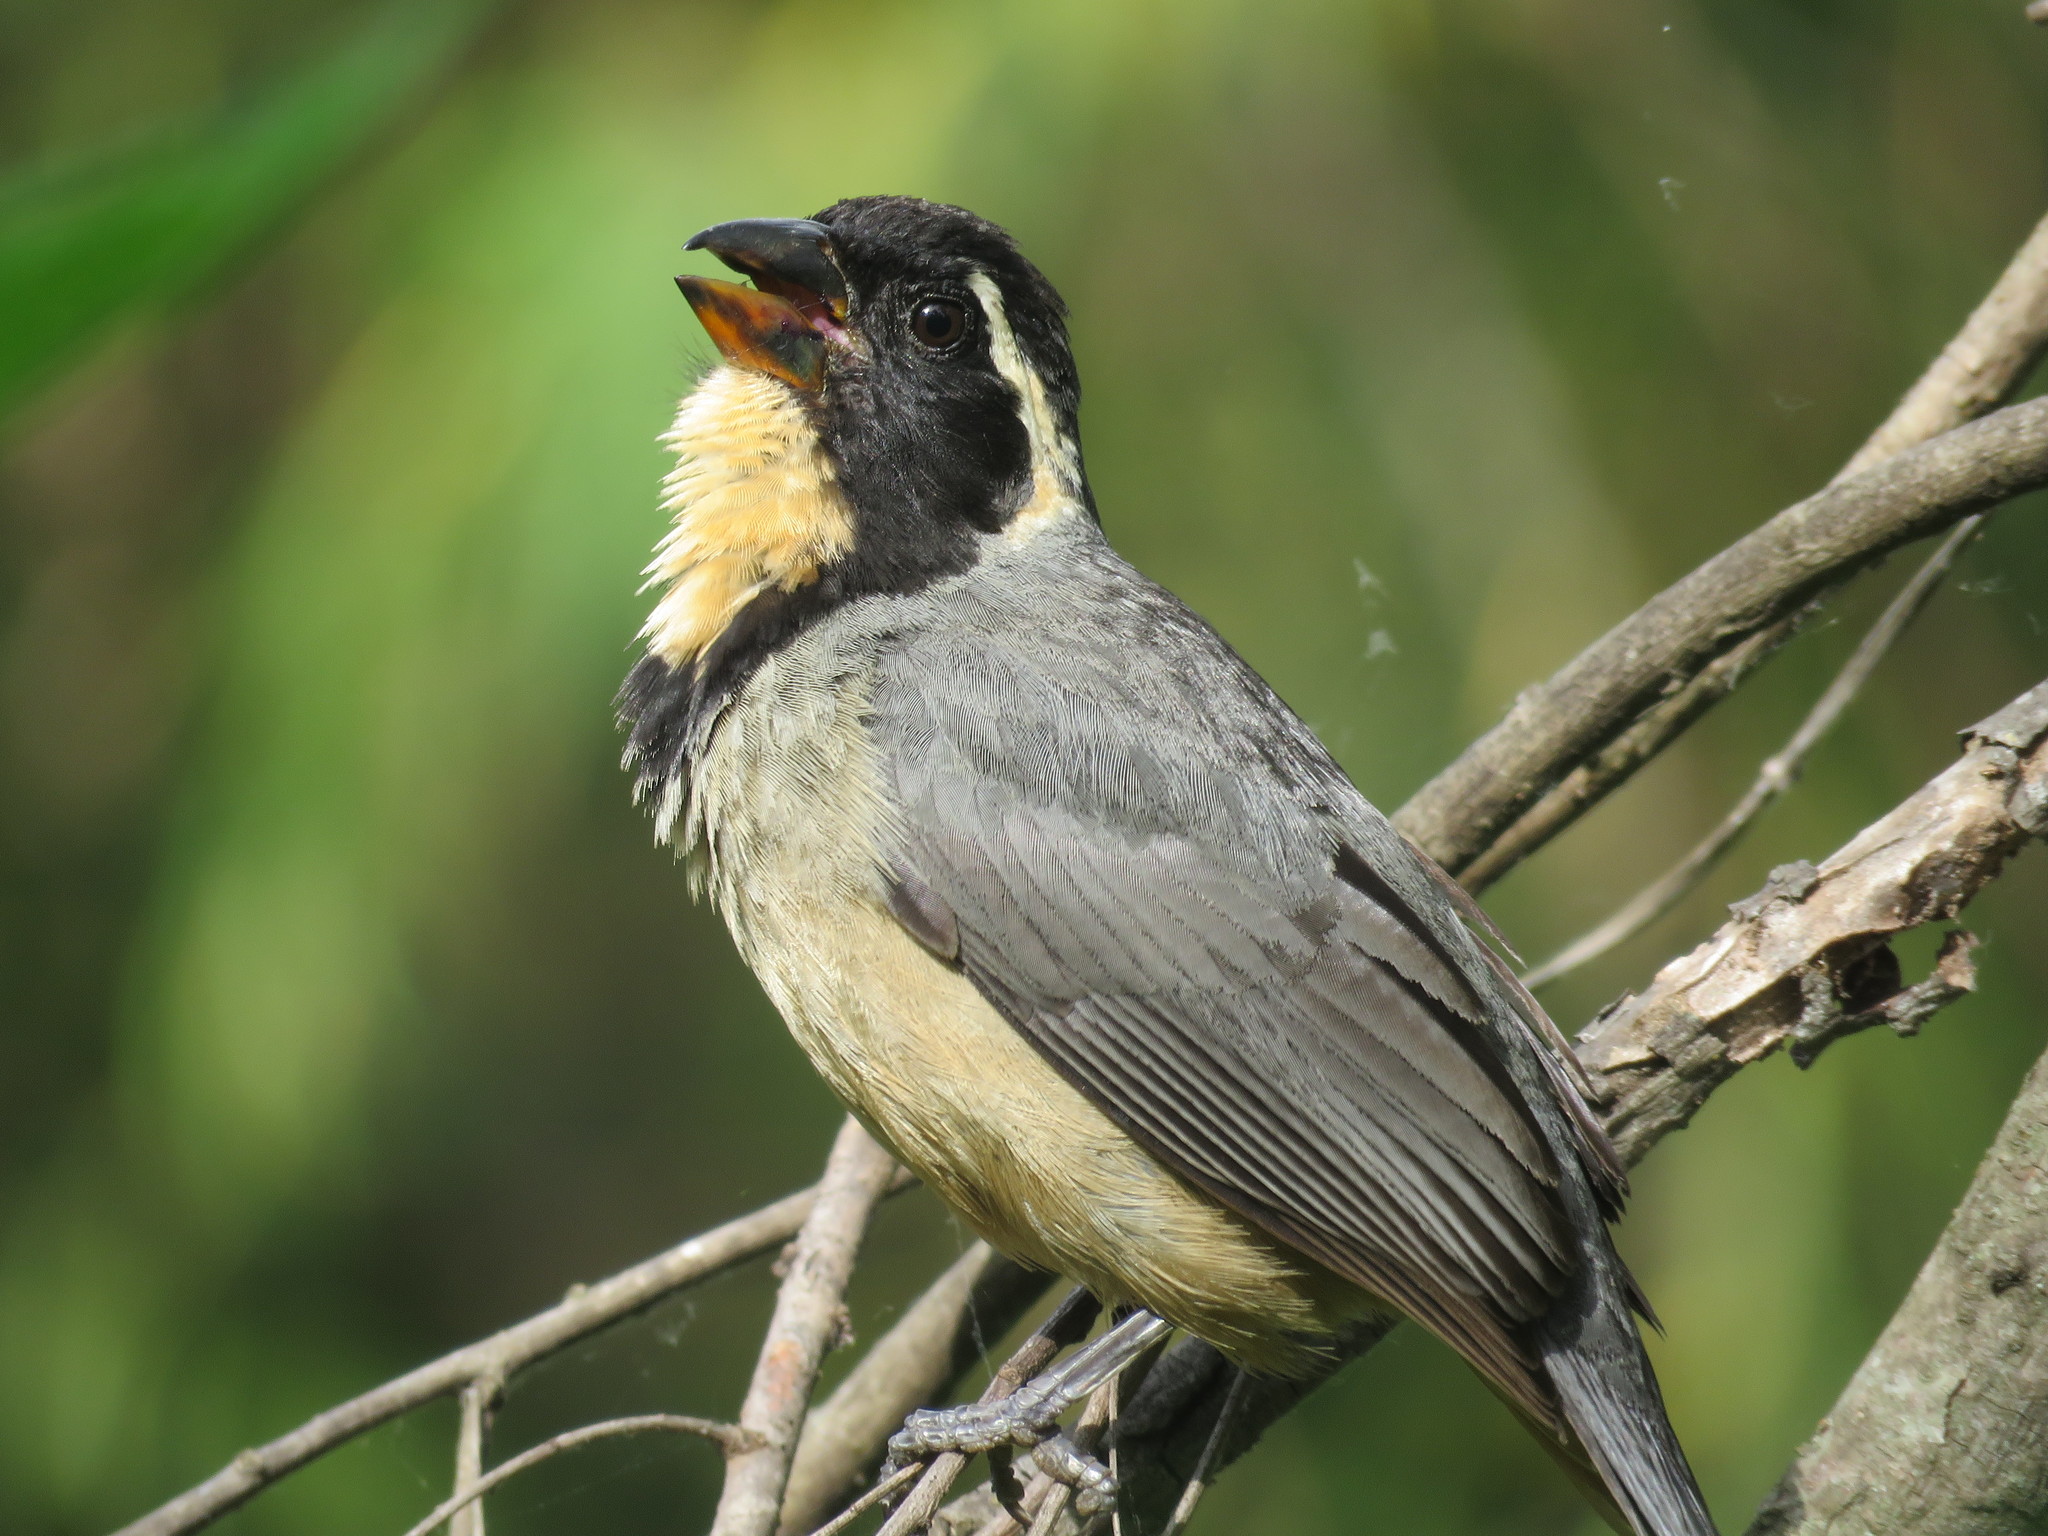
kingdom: Animalia
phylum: Chordata
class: Aves
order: Passeriformes
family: Thraupidae
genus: Saltator
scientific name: Saltator aurantiirostris
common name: Golden-billed saltator
